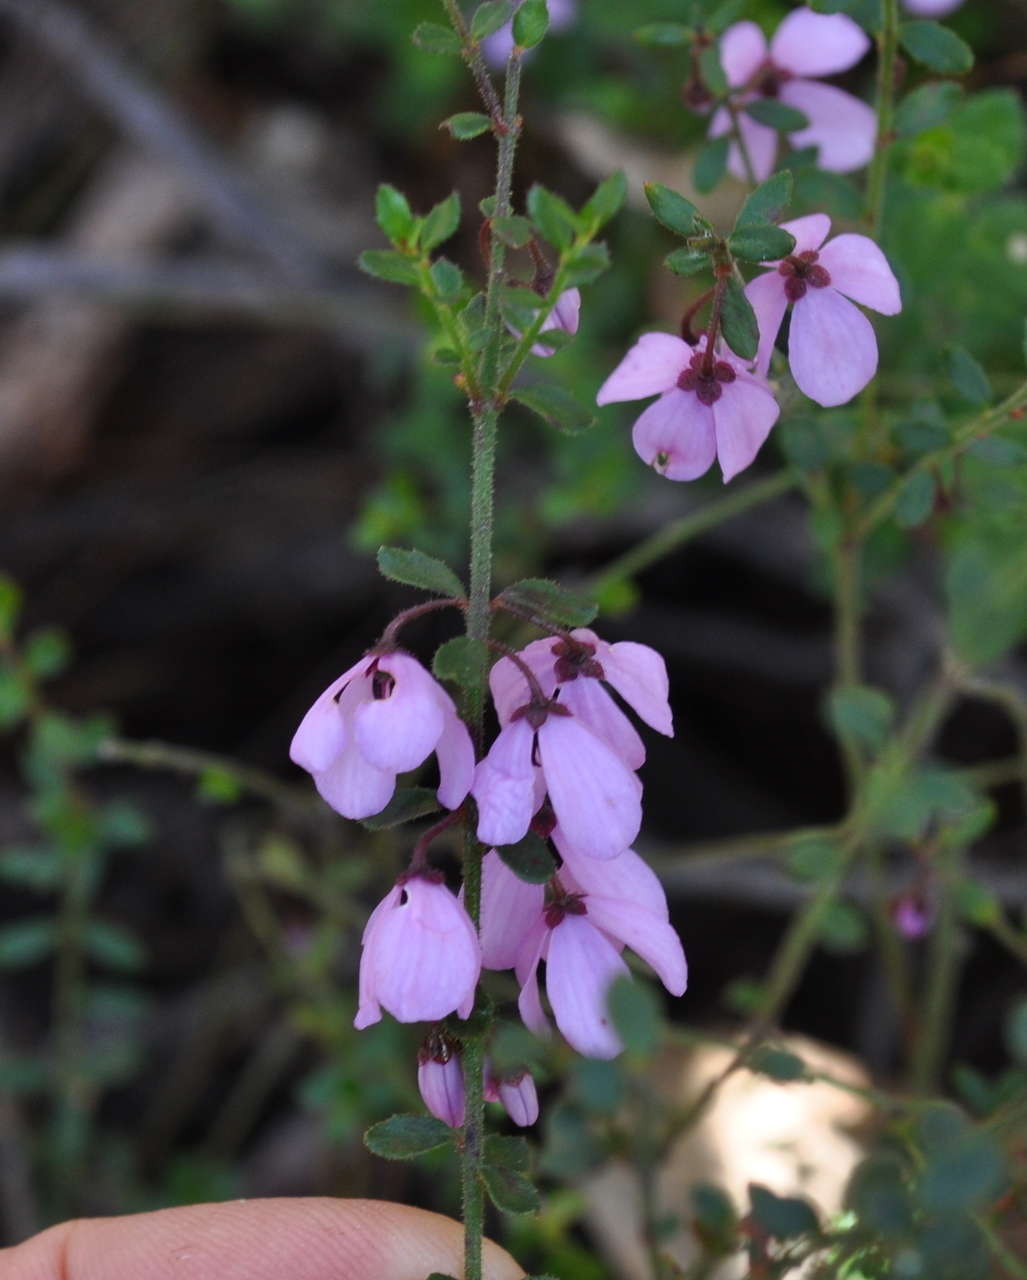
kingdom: Plantae
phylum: Tracheophyta
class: Magnoliopsida
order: Oxalidales
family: Elaeocarpaceae
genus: Tetratheca
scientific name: Tetratheca pilosa
